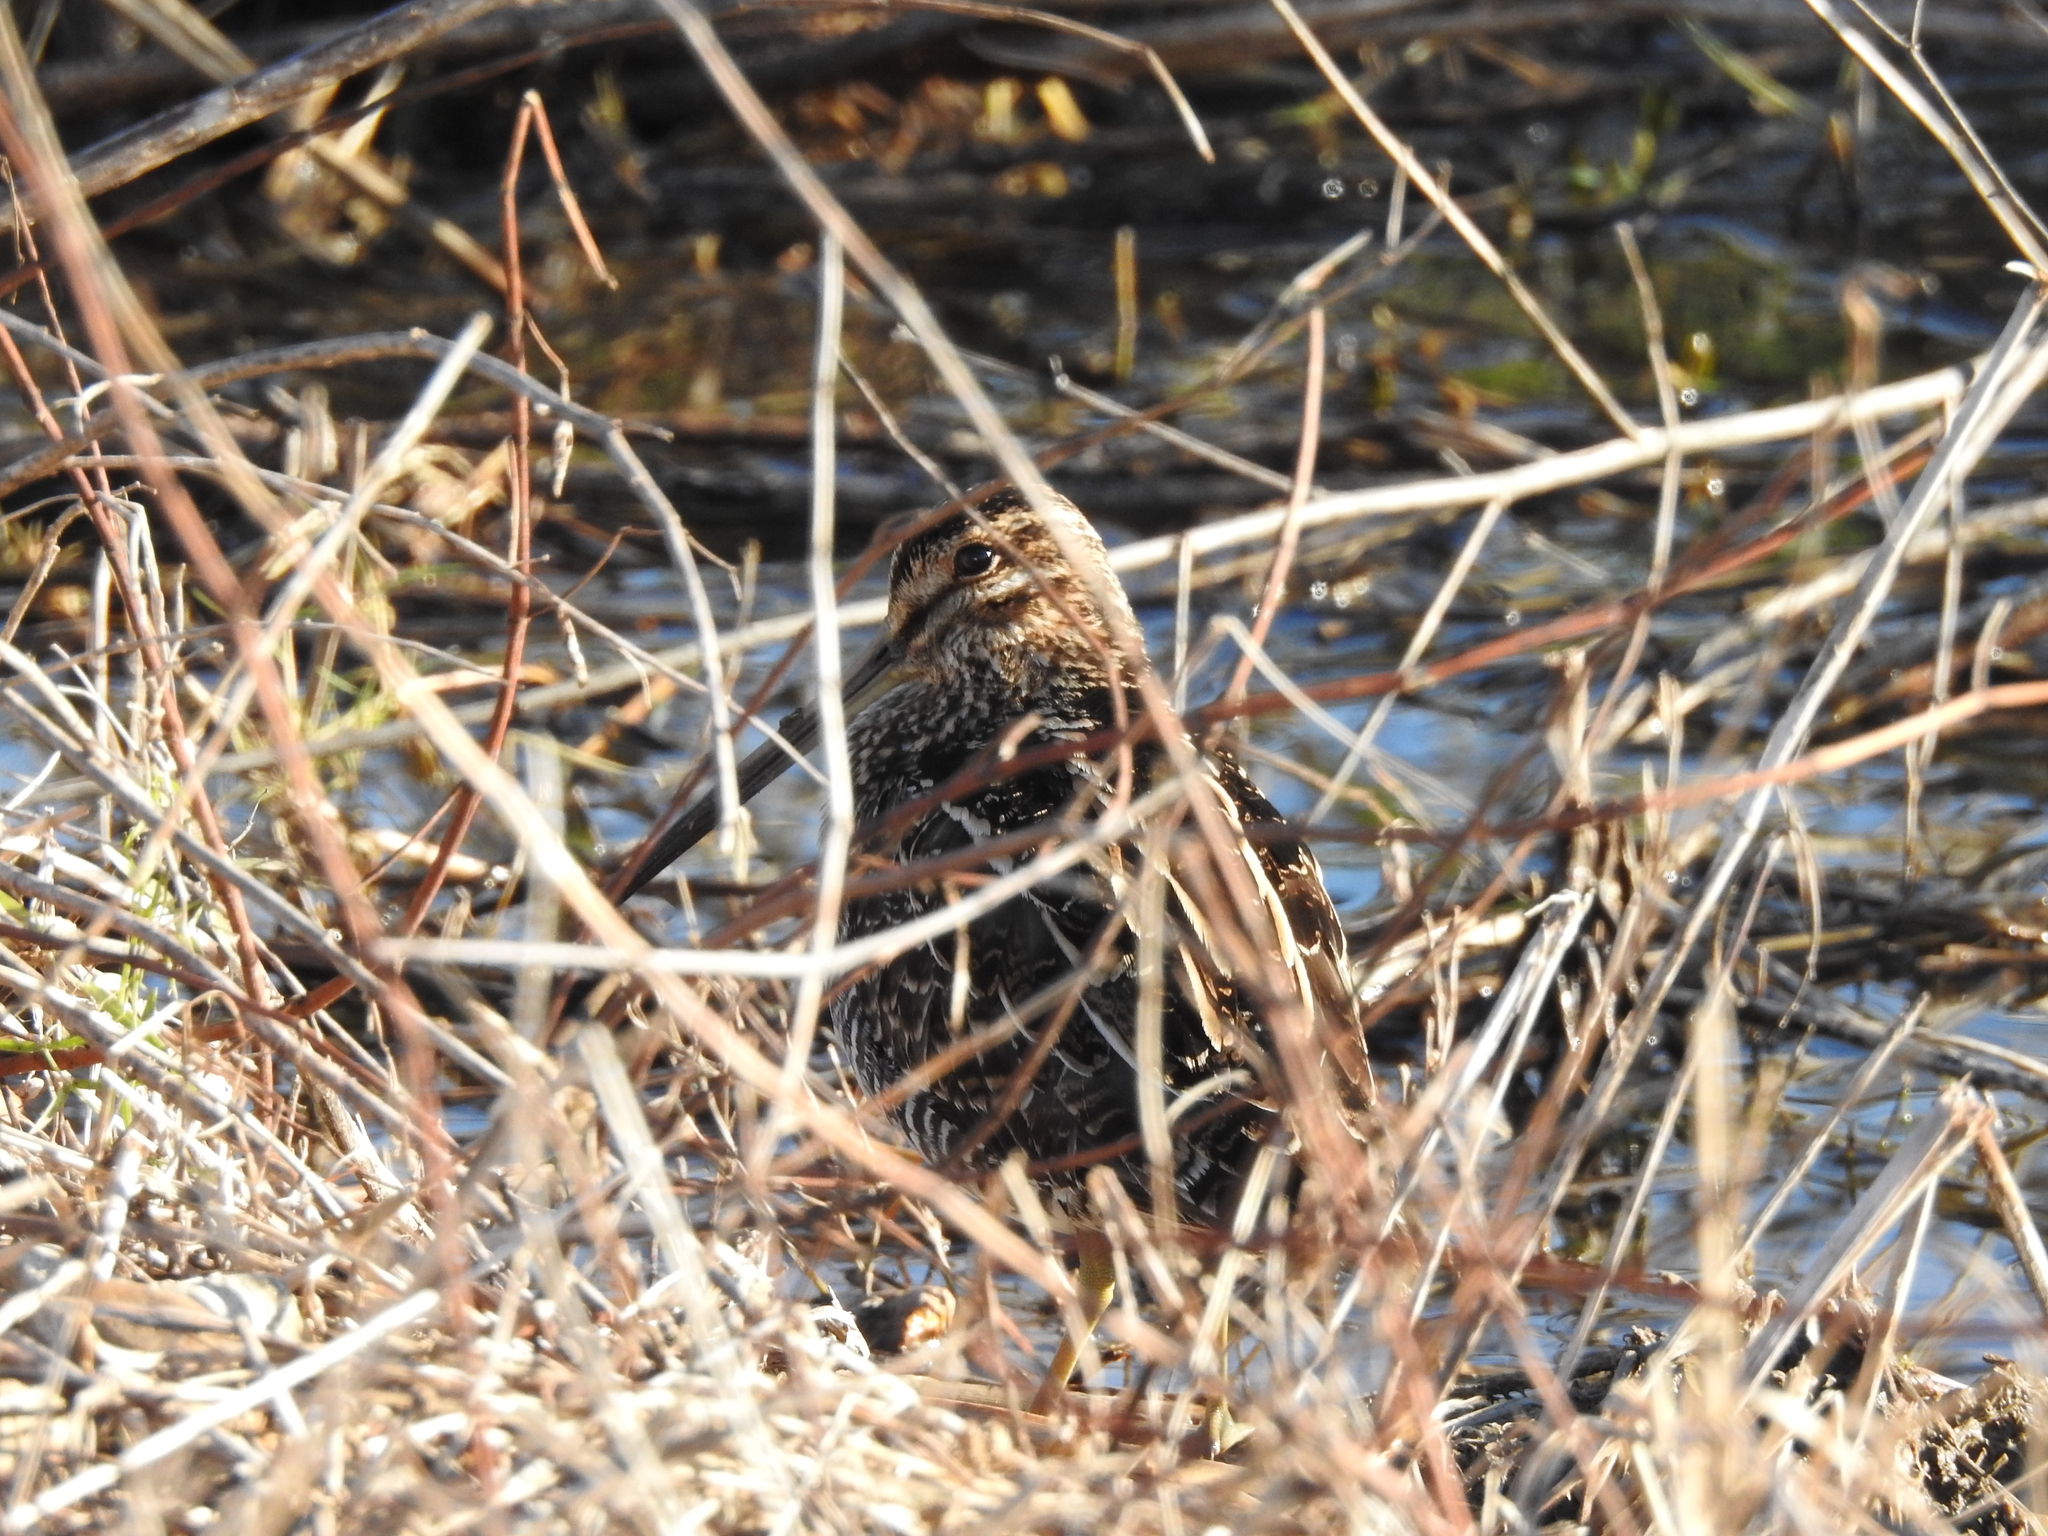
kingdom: Animalia
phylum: Chordata
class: Aves
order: Charadriiformes
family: Scolopacidae
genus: Gallinago
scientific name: Gallinago delicata
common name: Wilson's snipe
